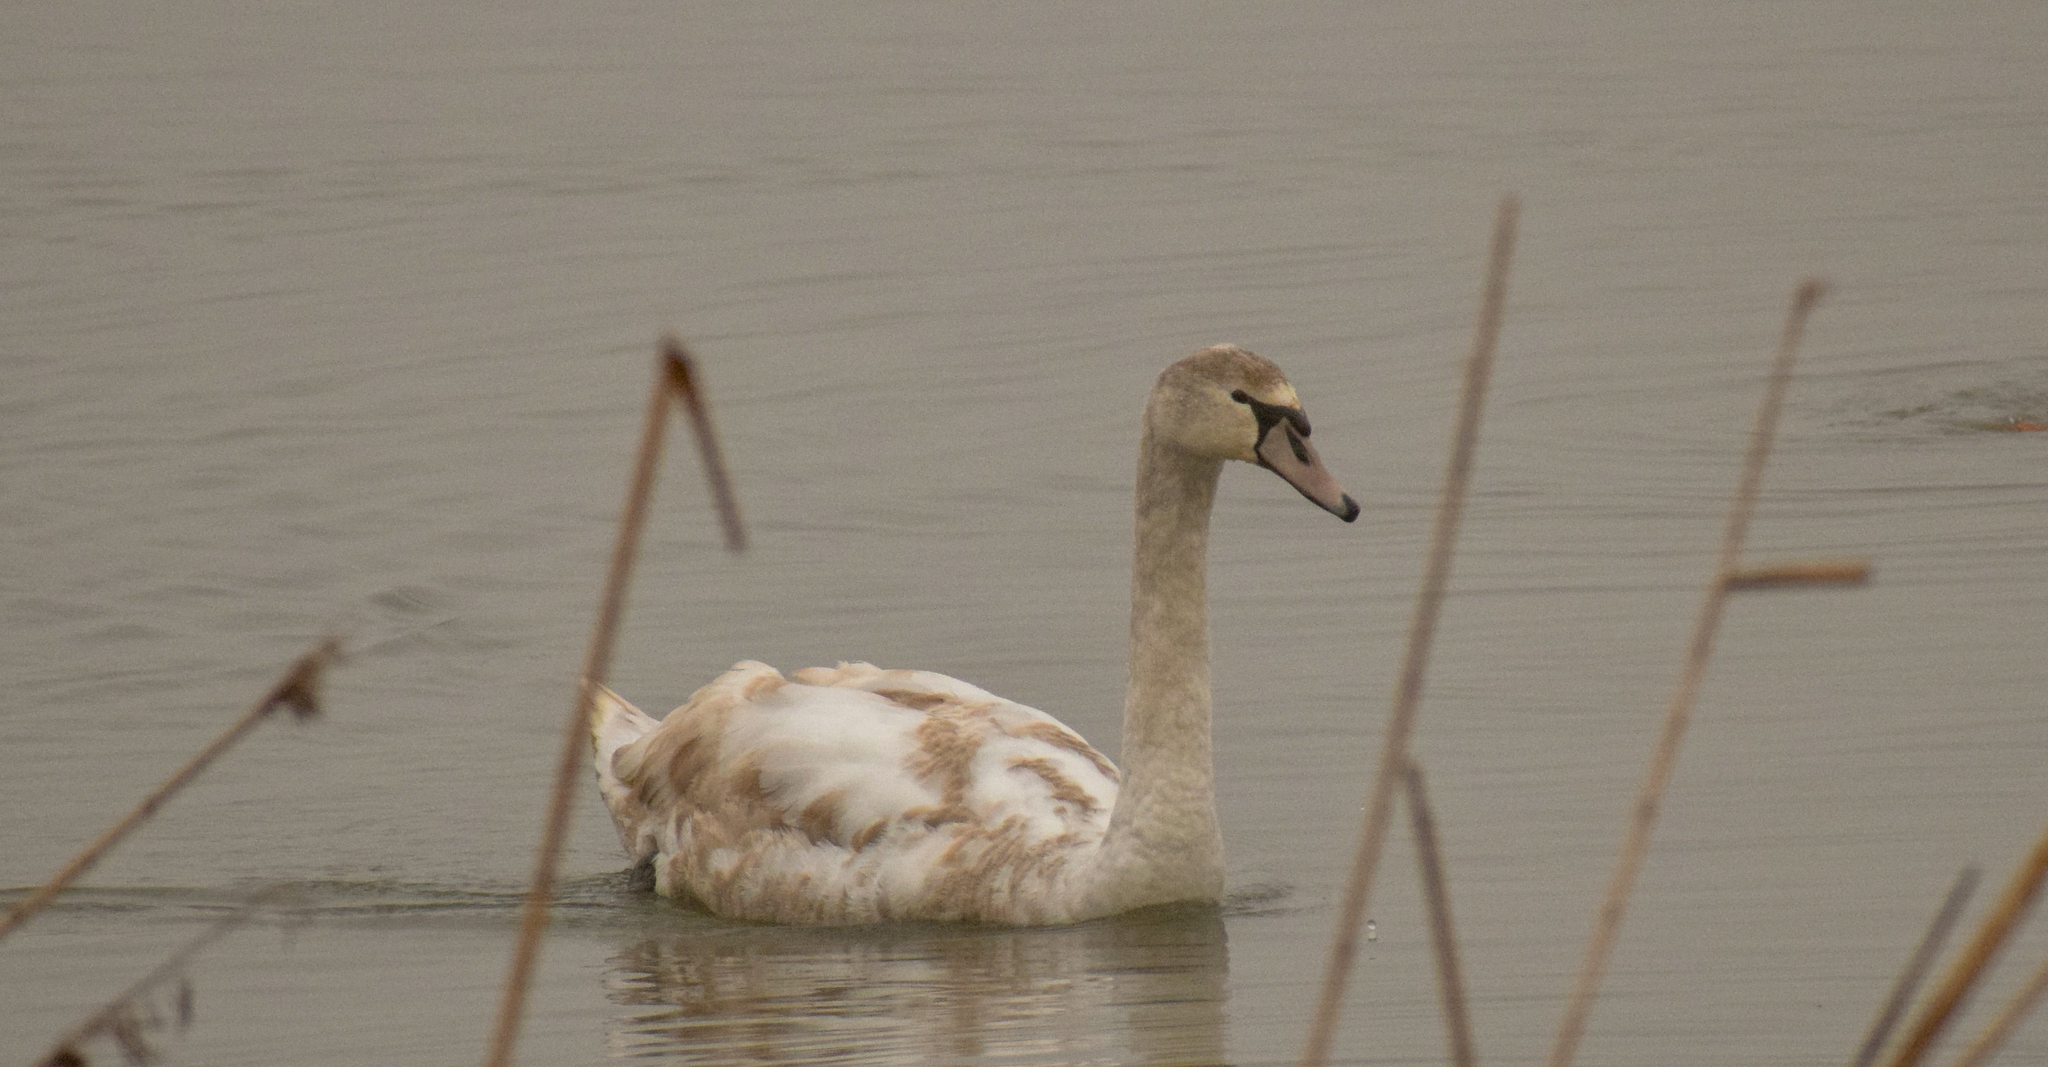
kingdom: Animalia
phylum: Chordata
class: Aves
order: Anseriformes
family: Anatidae
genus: Cygnus
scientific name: Cygnus olor
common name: Mute swan
